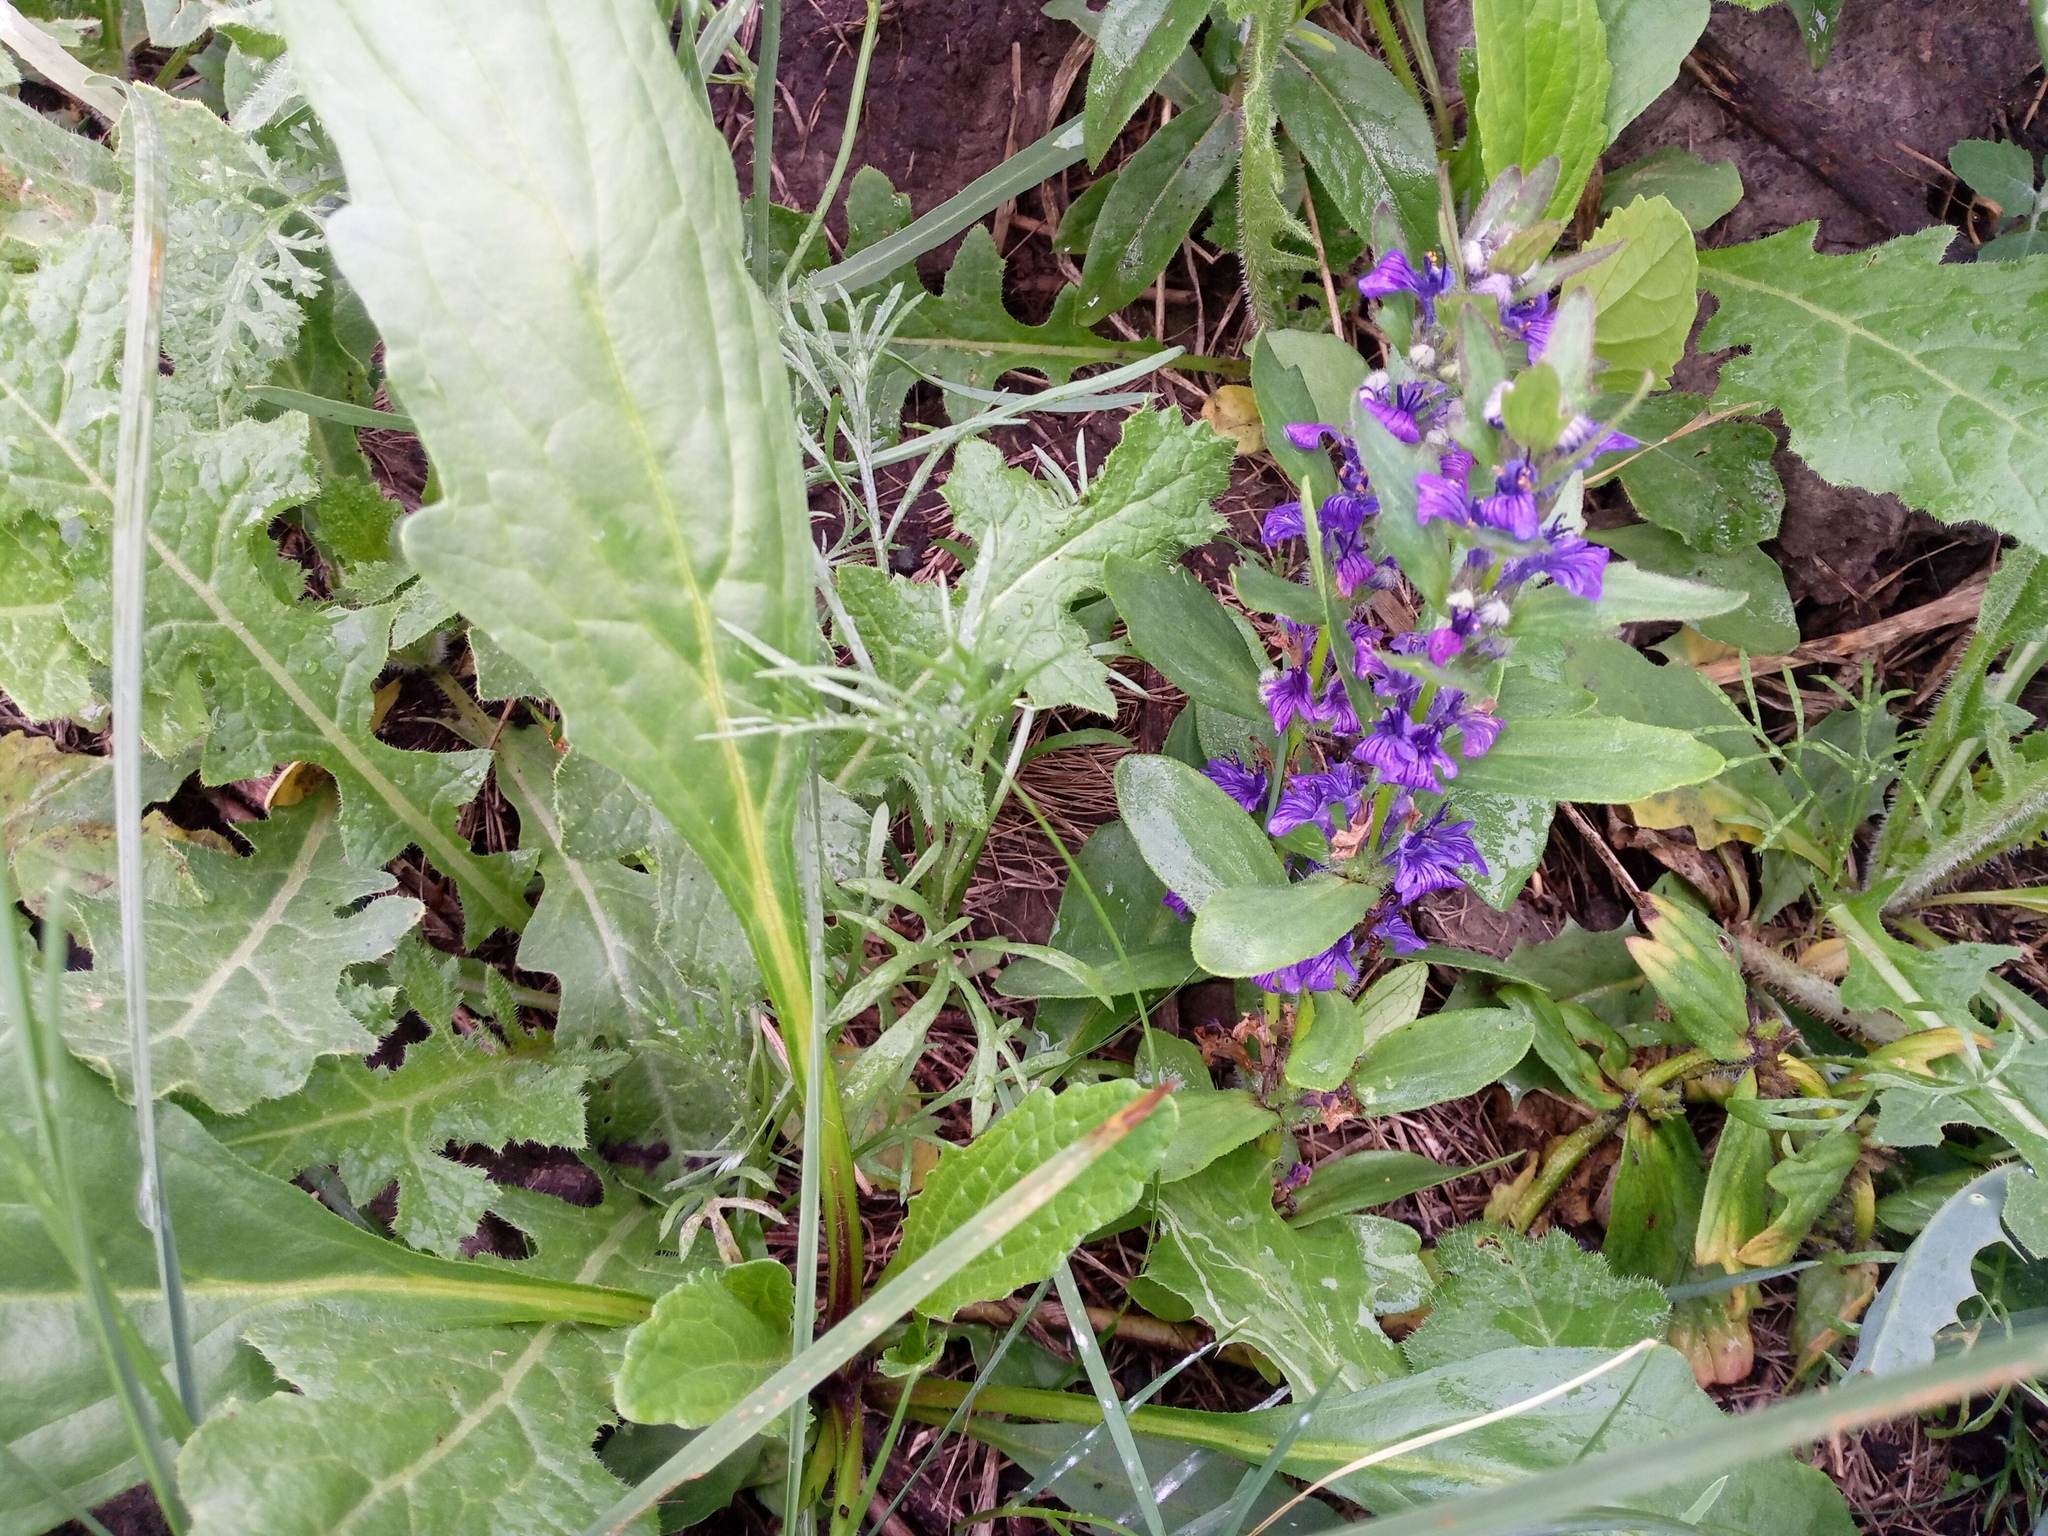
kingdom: Plantae
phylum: Tracheophyta
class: Magnoliopsida
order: Lamiales
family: Lamiaceae
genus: Ajuga
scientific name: Ajuga genevensis
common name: Blue bugle
